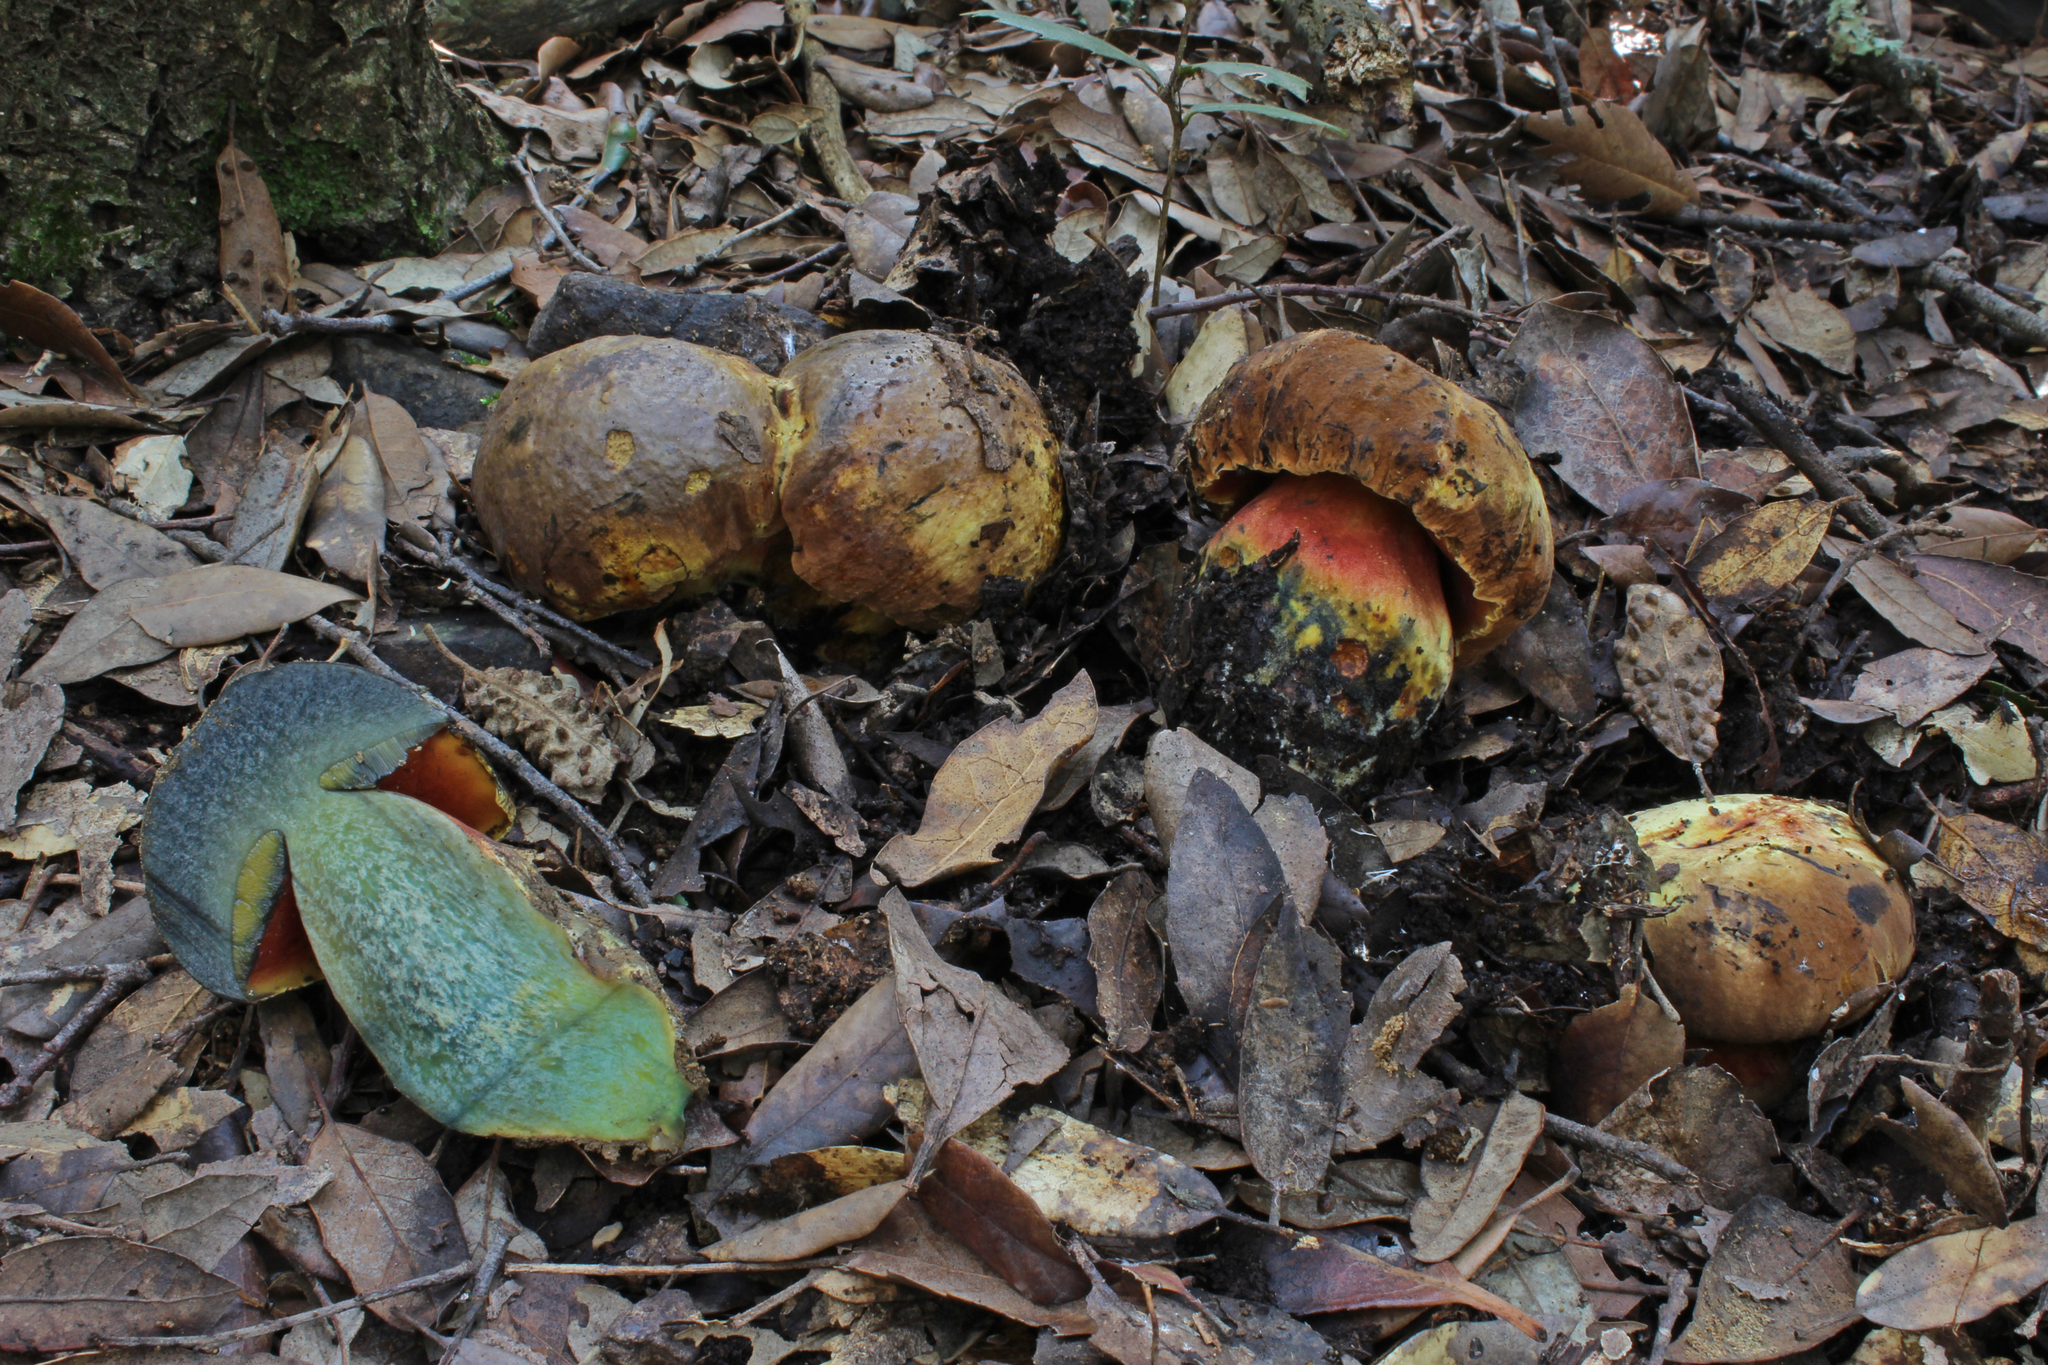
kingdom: Fungi
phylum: Basidiomycota
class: Agaricomycetes
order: Boletales
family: Boletaceae
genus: Neoboletus
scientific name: Neoboletus xanthopus
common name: False yellow bolete
